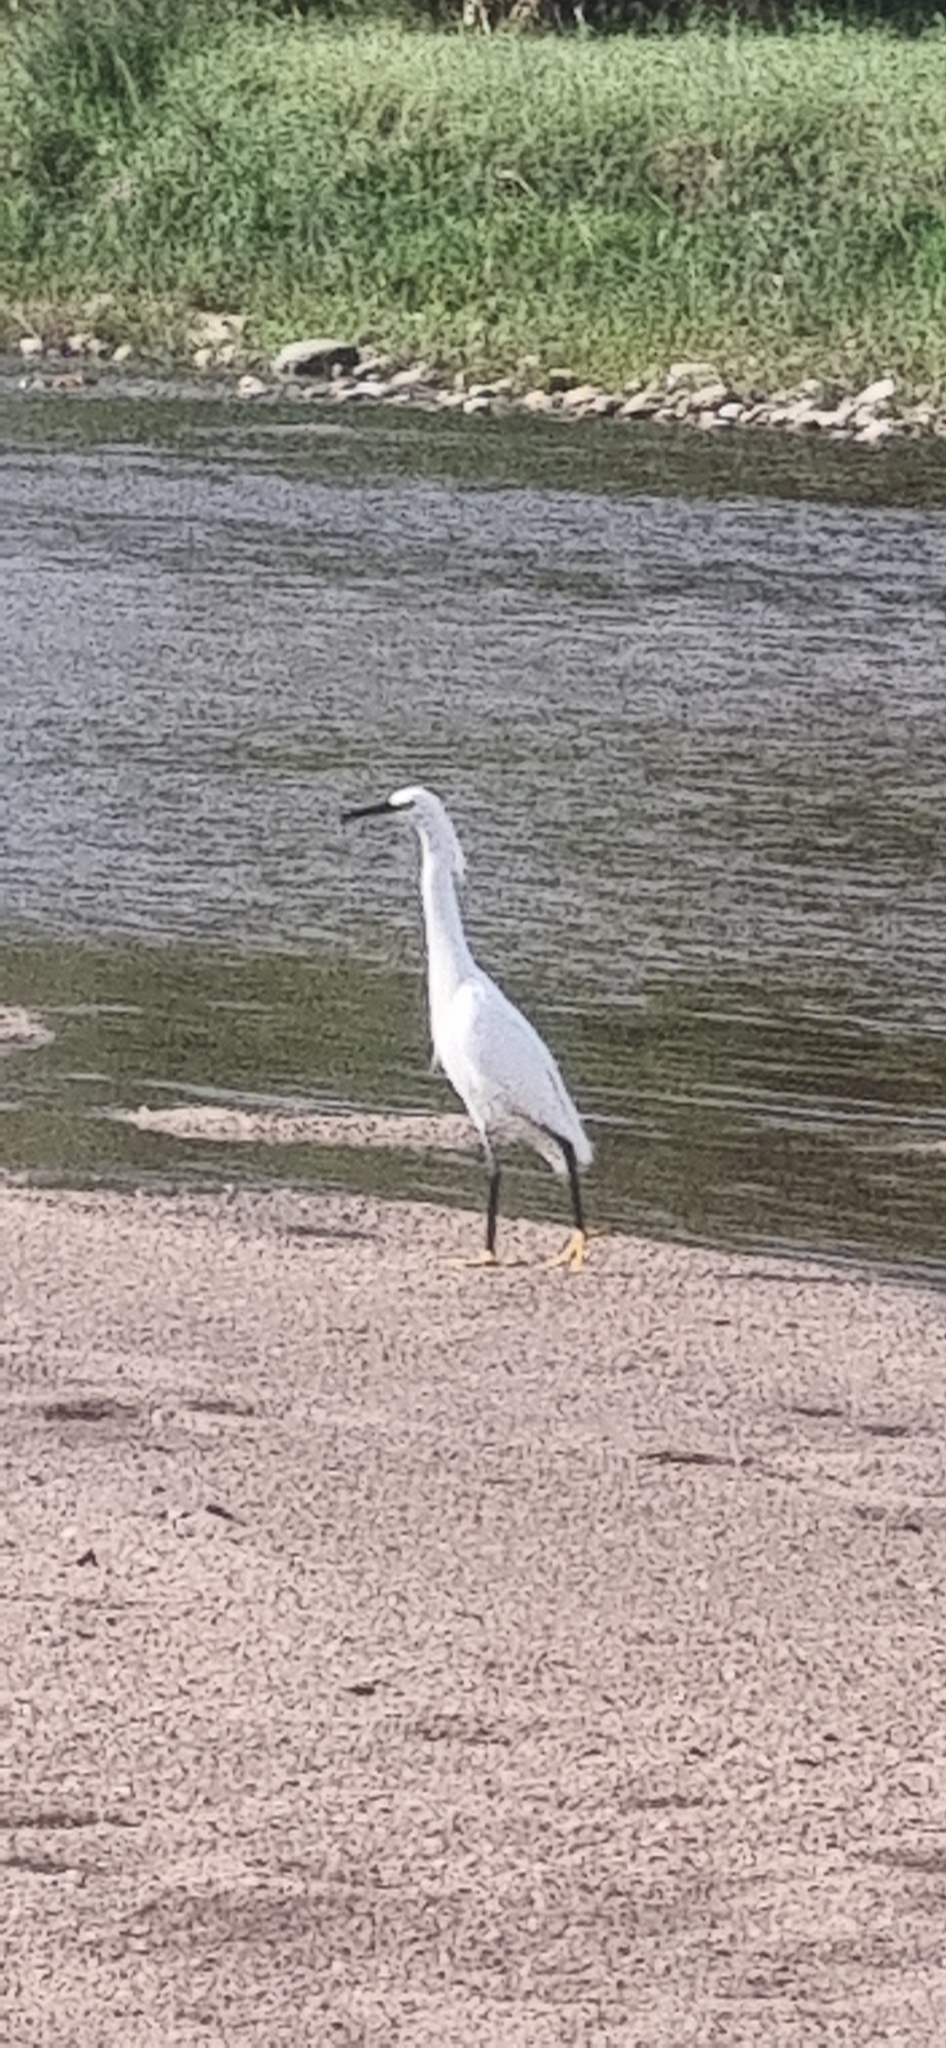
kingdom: Animalia
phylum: Chordata
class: Aves
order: Pelecaniformes
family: Ardeidae
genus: Egretta
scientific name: Egretta thula
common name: Snowy egret
